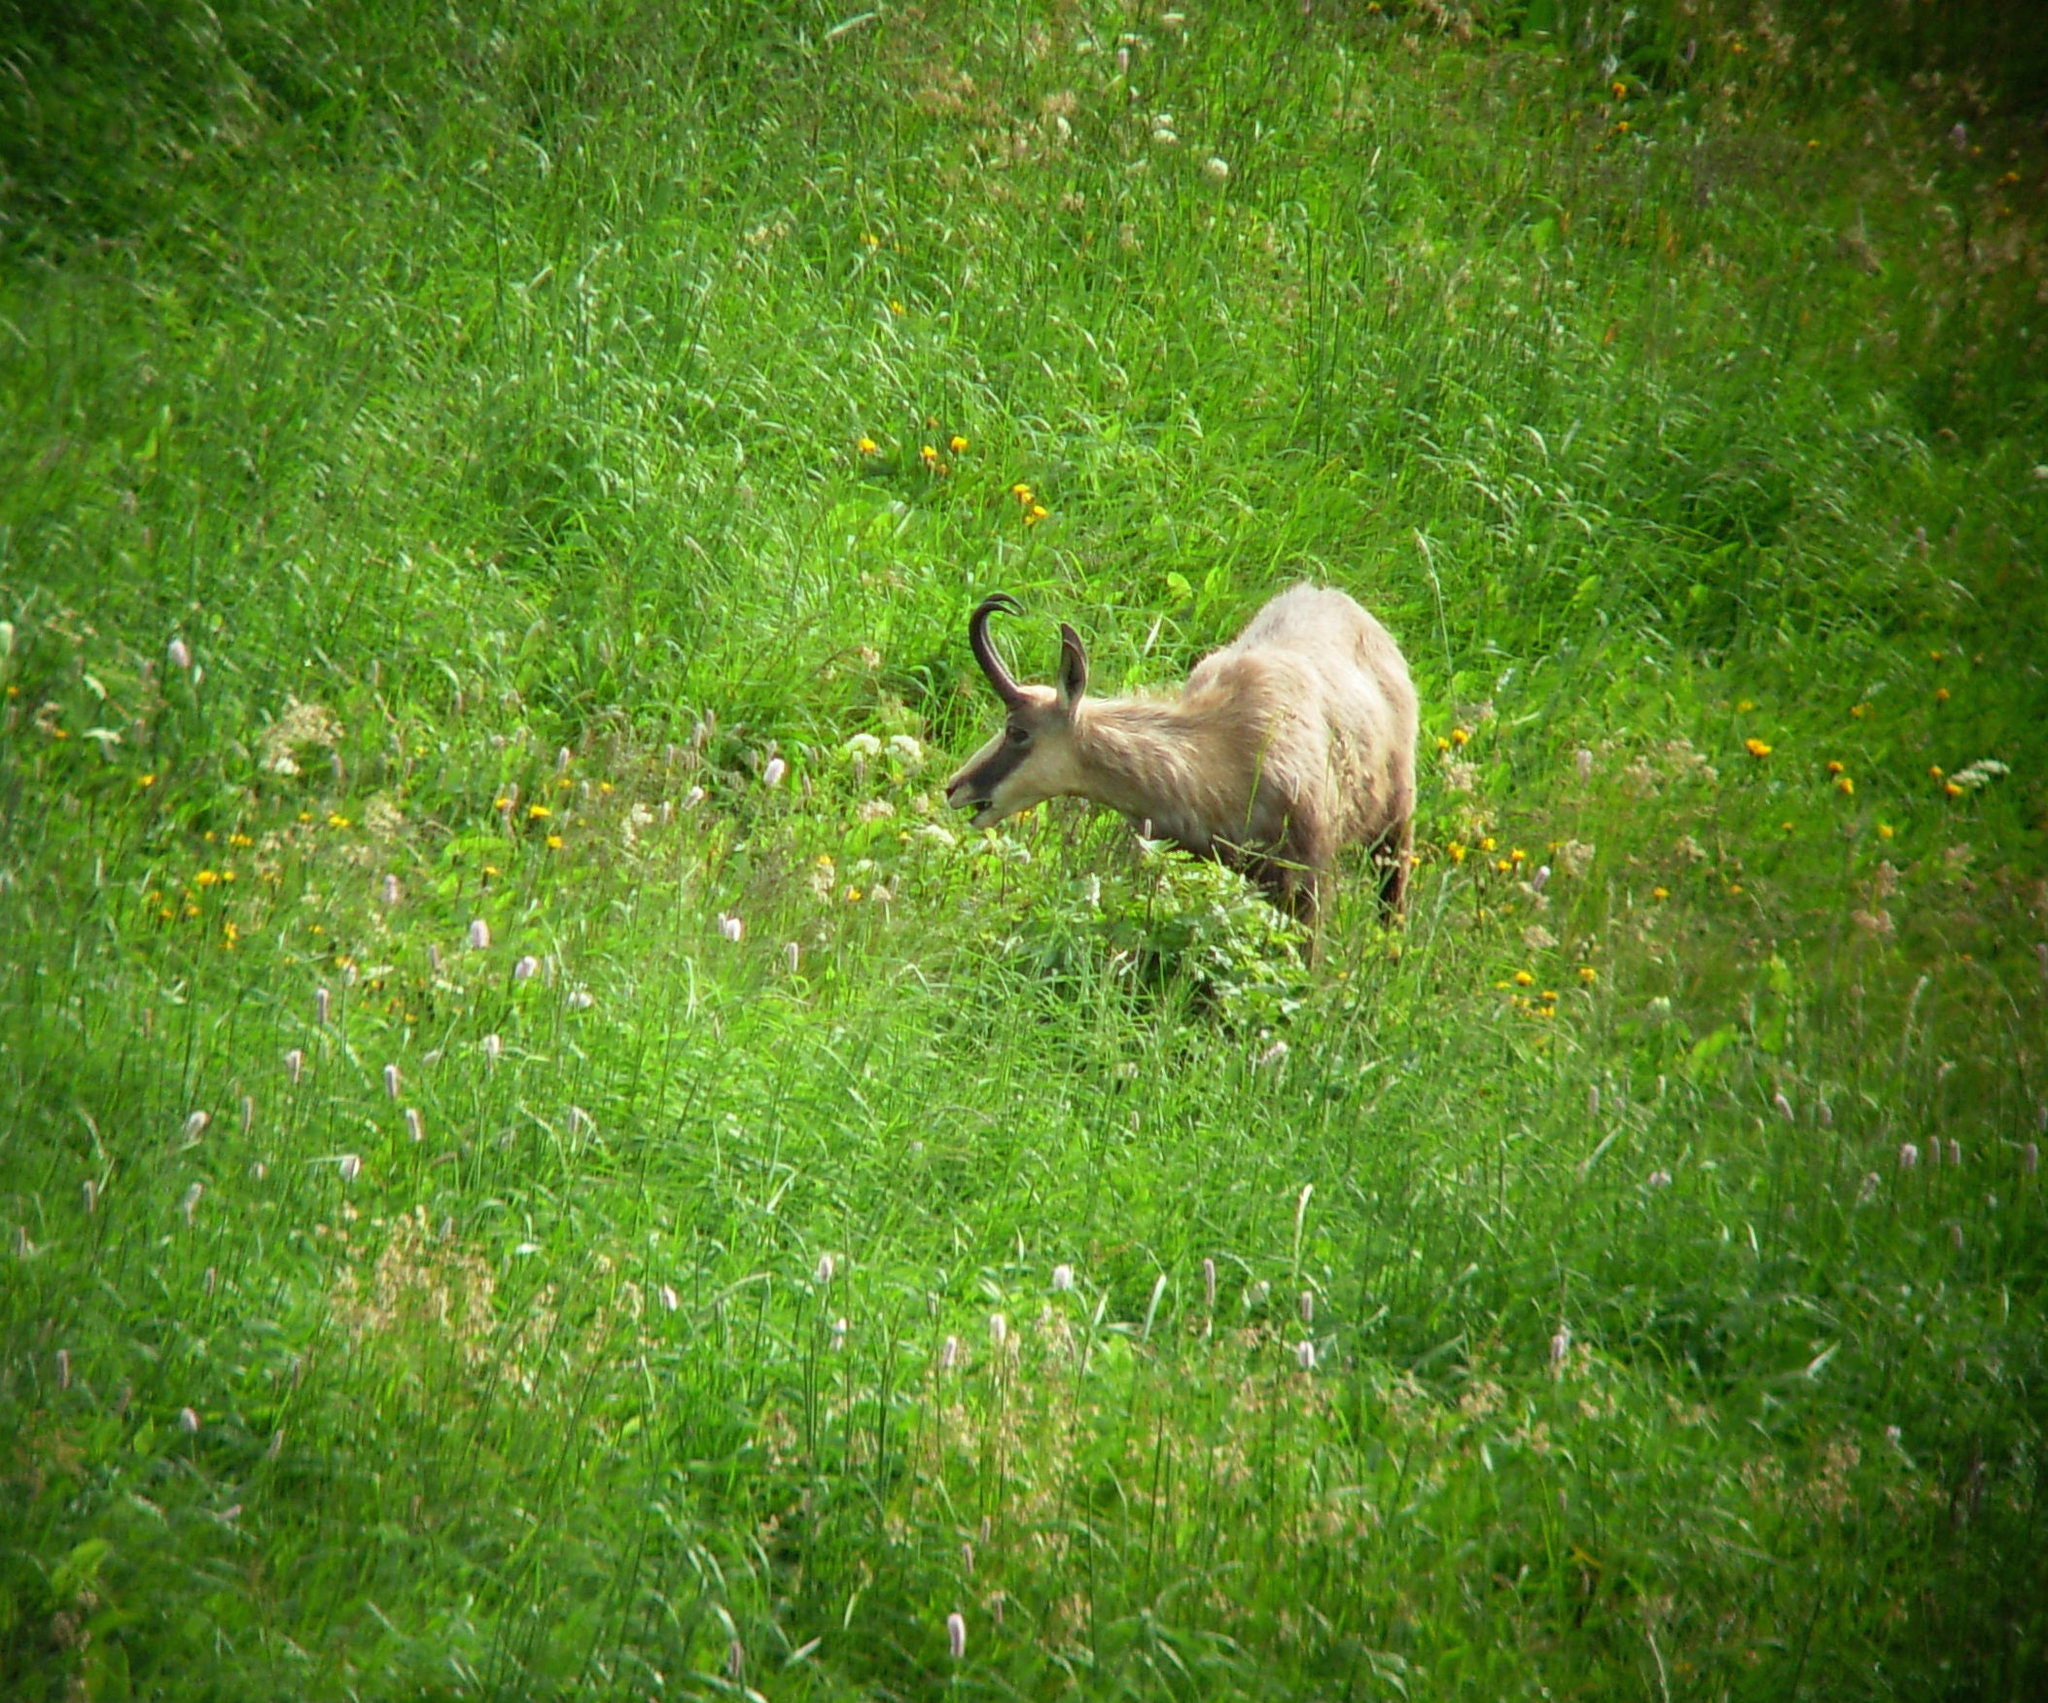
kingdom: Animalia
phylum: Chordata
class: Mammalia
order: Artiodactyla
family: Bovidae
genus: Rupicapra
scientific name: Rupicapra rupicapra
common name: Chamois
